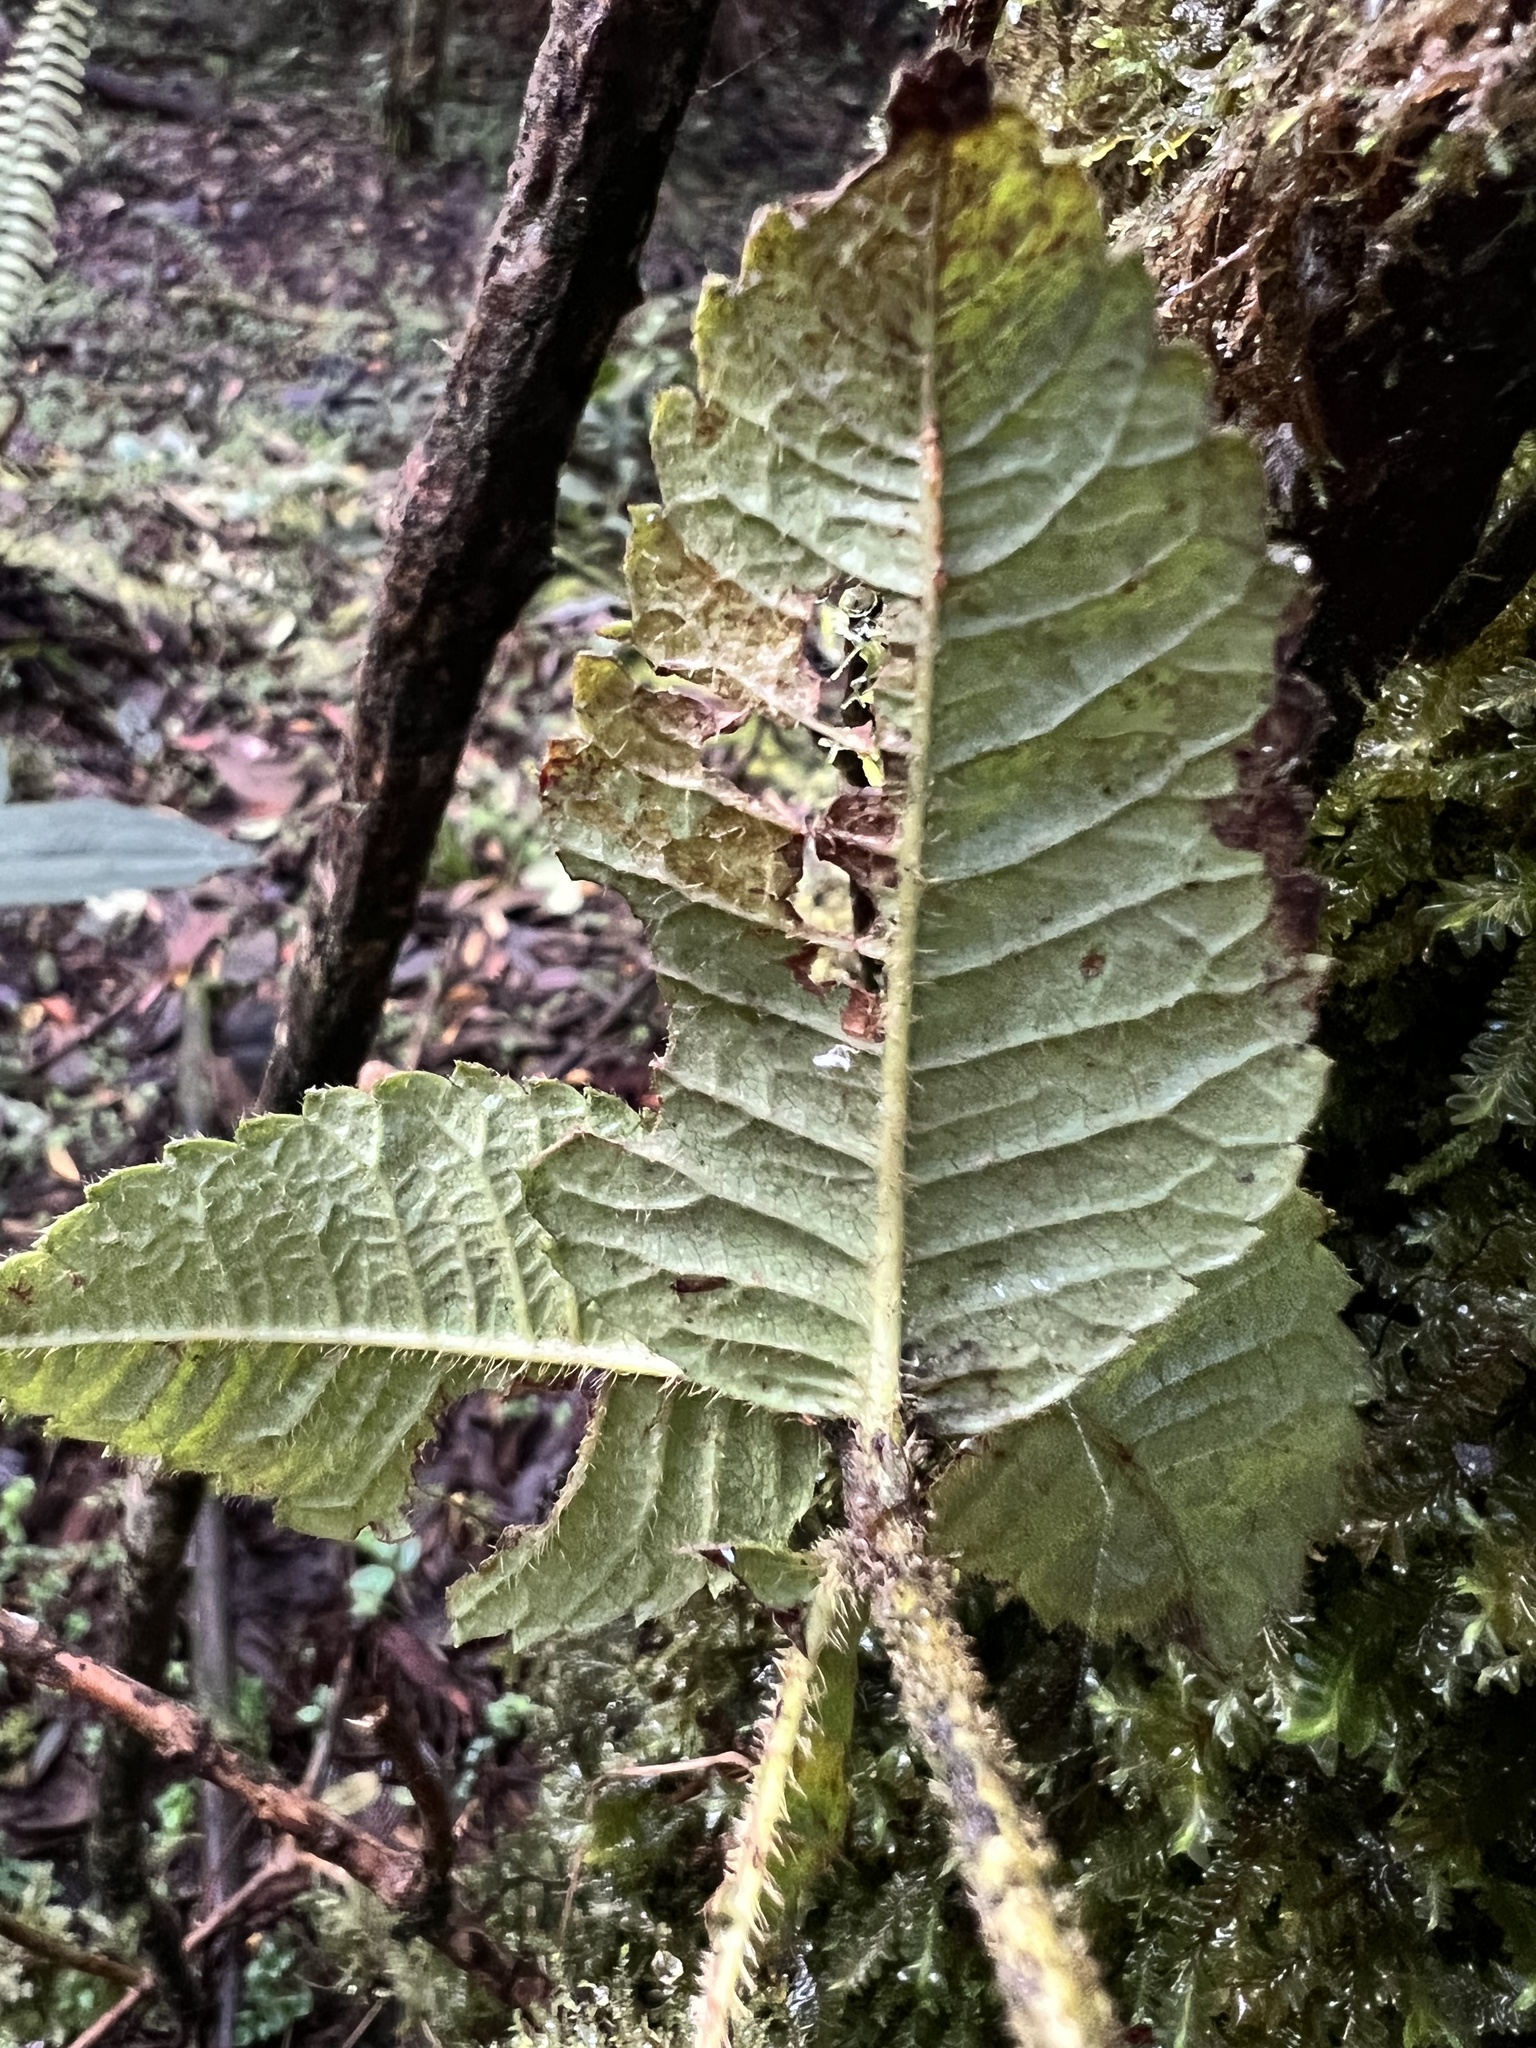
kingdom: Plantae
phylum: Tracheophyta
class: Magnoliopsida
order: Oxalidales
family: Cunoniaceae
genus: Weinmannia
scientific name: Weinmannia rollottii
